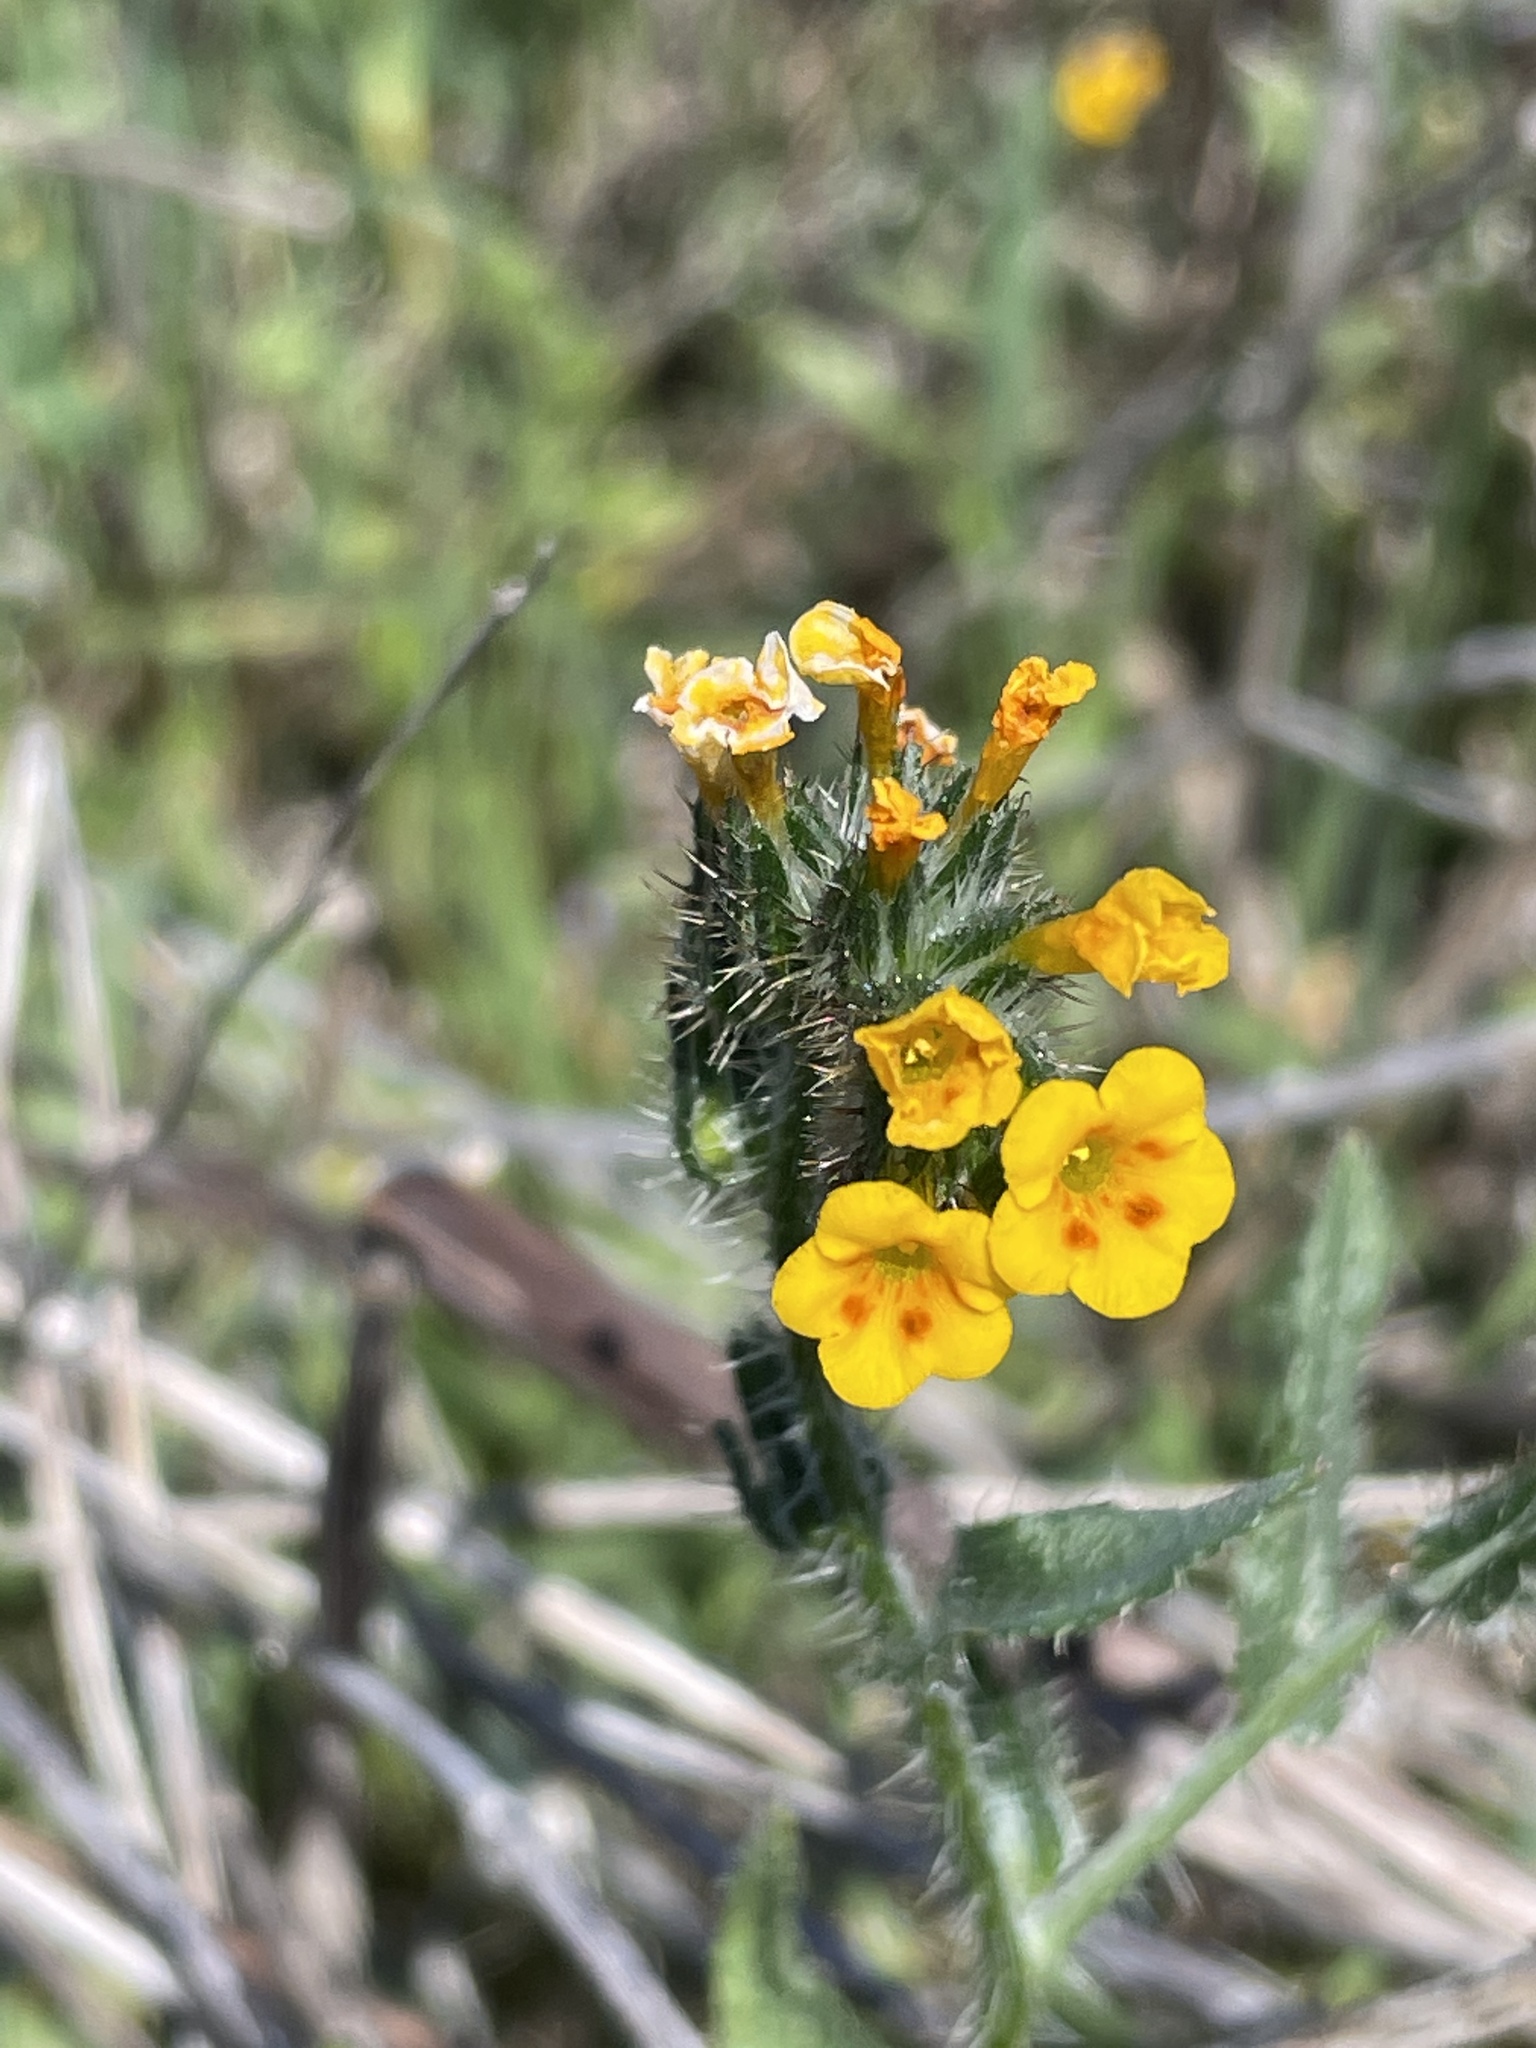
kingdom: Plantae
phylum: Tracheophyta
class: Magnoliopsida
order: Boraginales
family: Boraginaceae
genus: Amsinckia
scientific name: Amsinckia menziesii
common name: Menzies' fiddleneck
